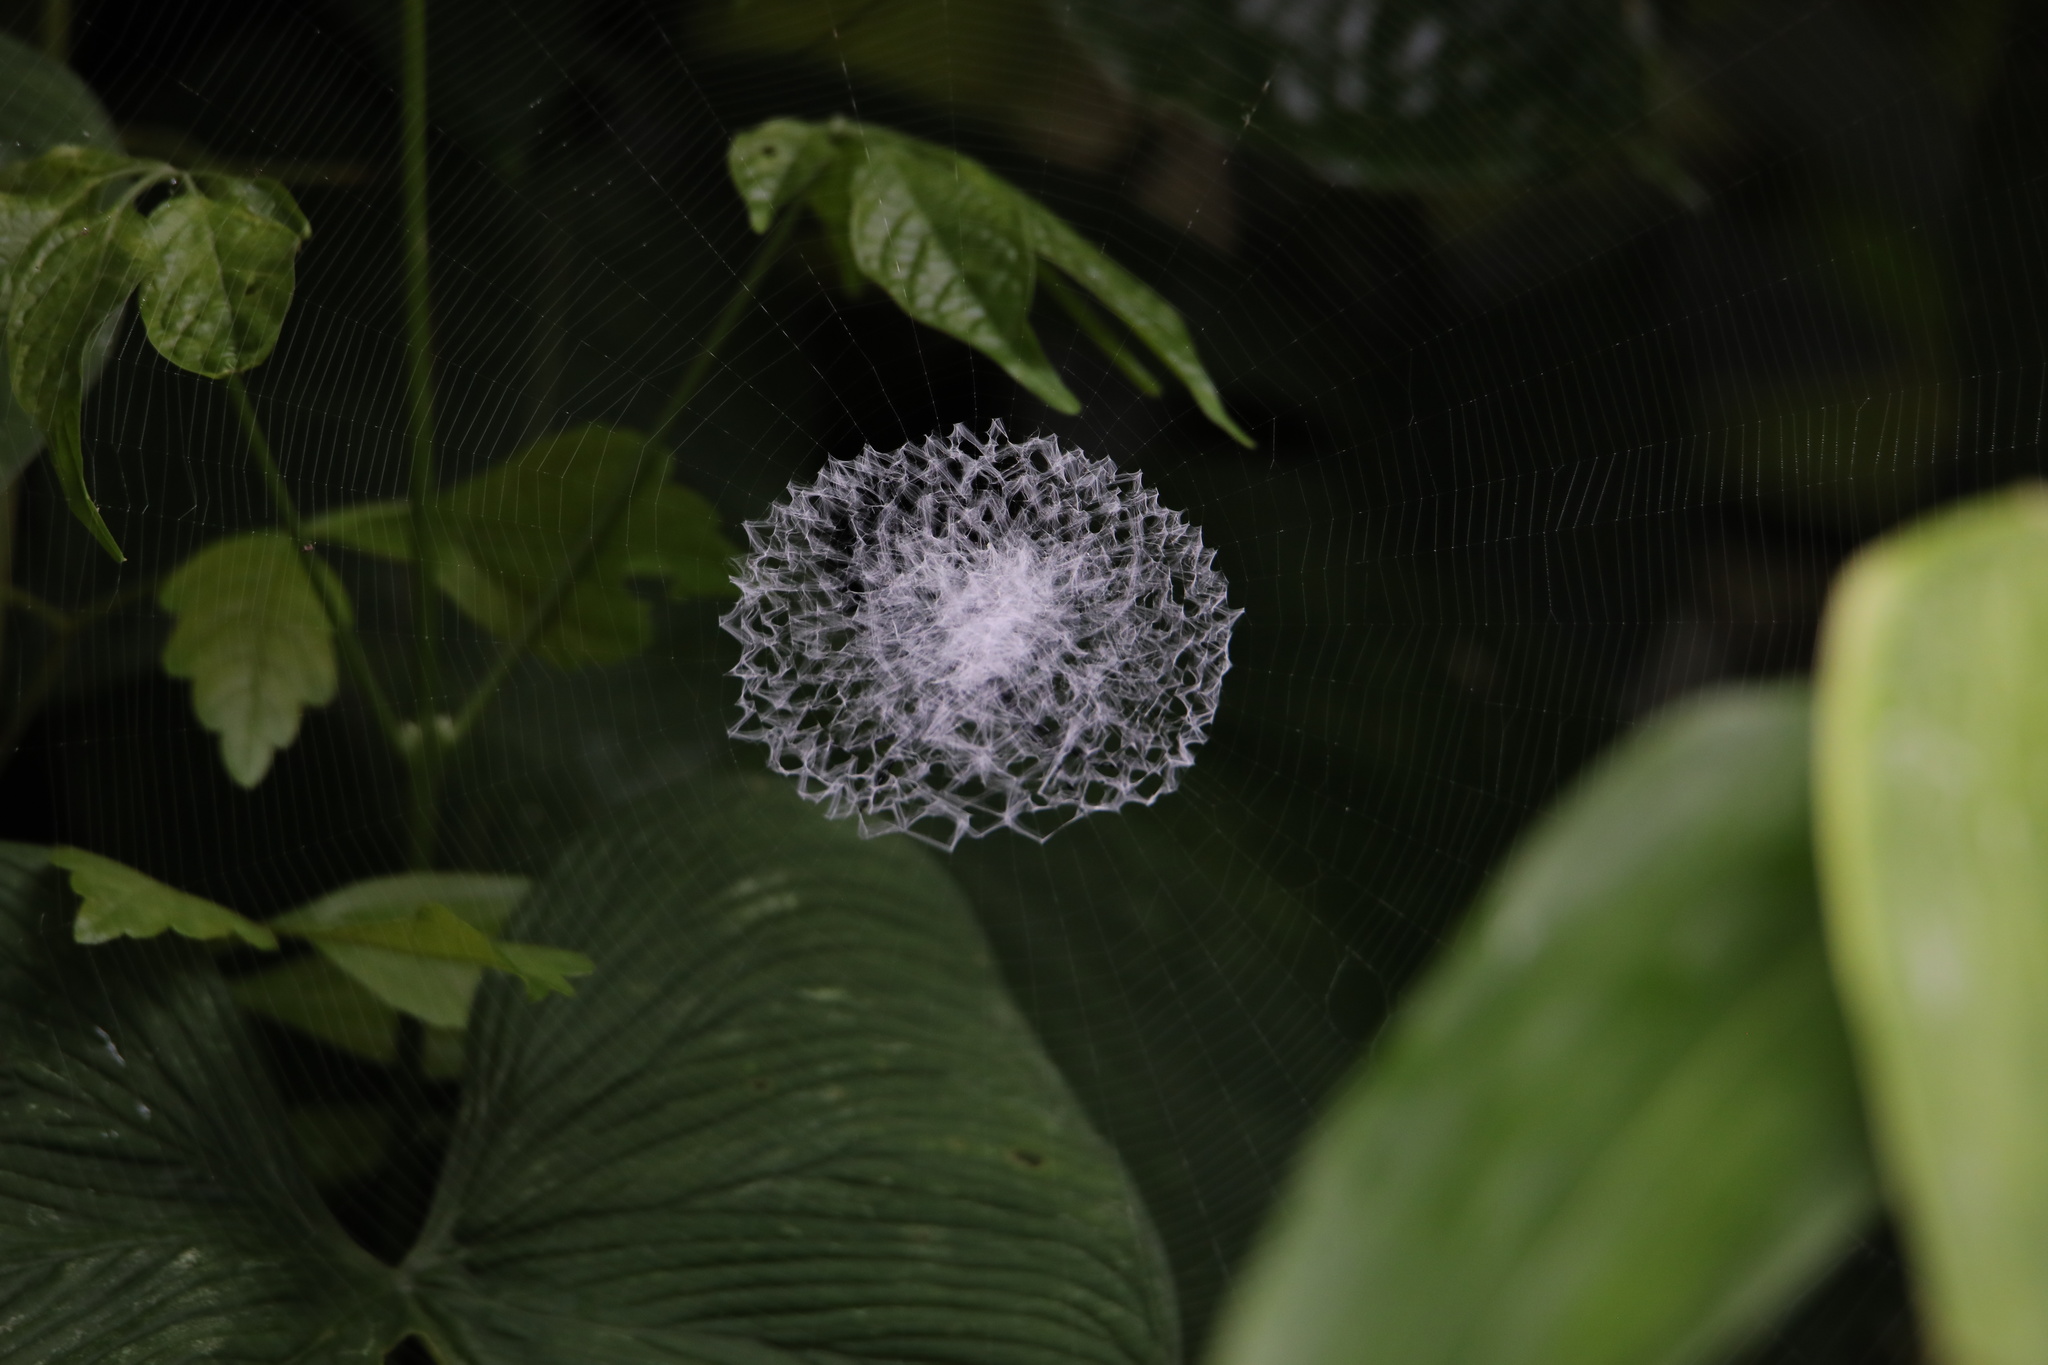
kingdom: Animalia
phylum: Arthropoda
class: Arachnida
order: Araneae
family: Araneidae
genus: Argiope
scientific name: Argiope submaronica
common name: Orb weavers
